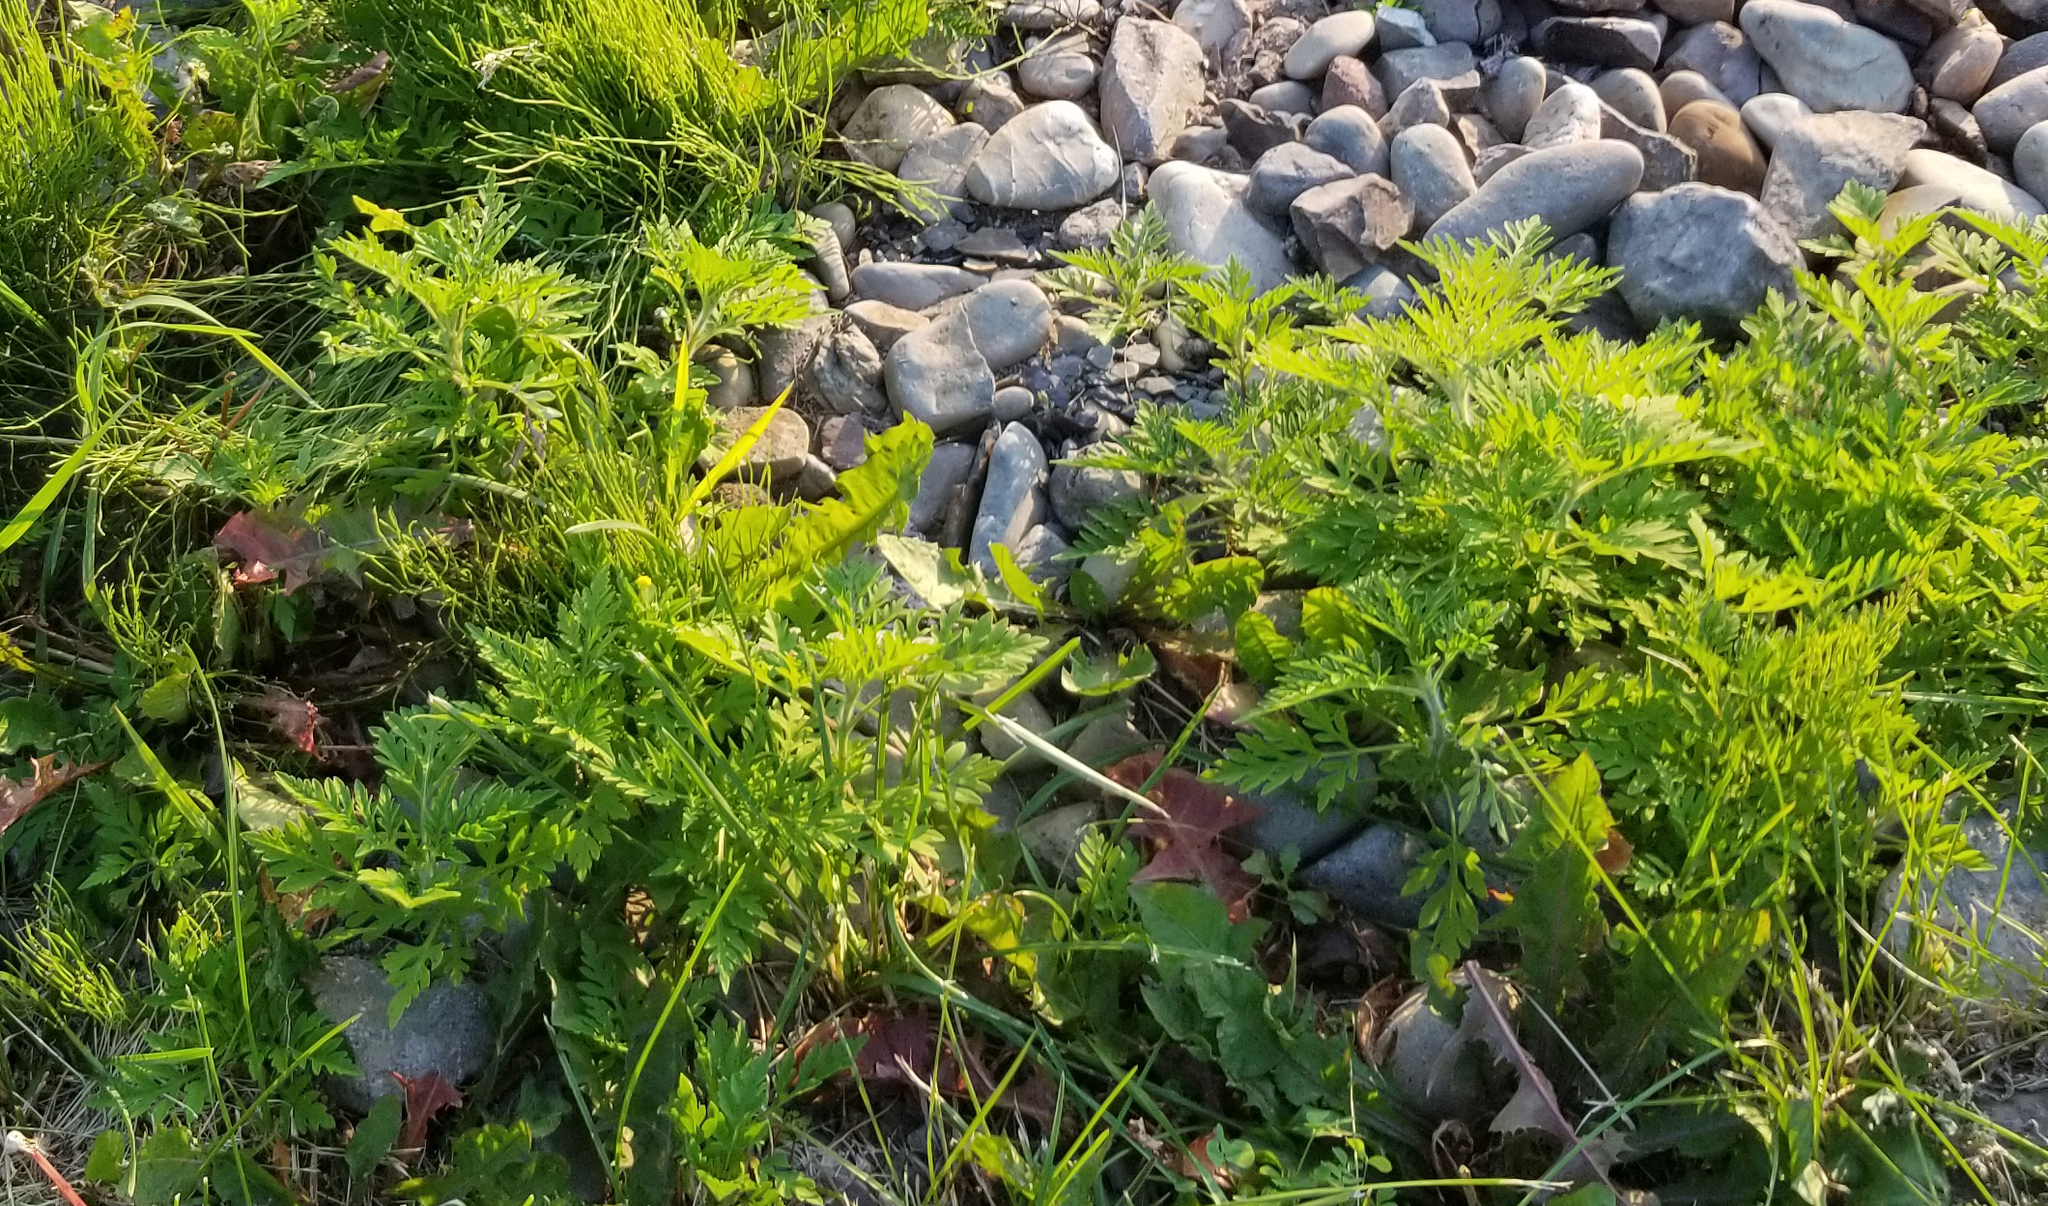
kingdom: Plantae
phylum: Tracheophyta
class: Magnoliopsida
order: Asterales
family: Asteraceae
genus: Ambrosia
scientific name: Ambrosia artemisiifolia
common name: Annual ragweed
